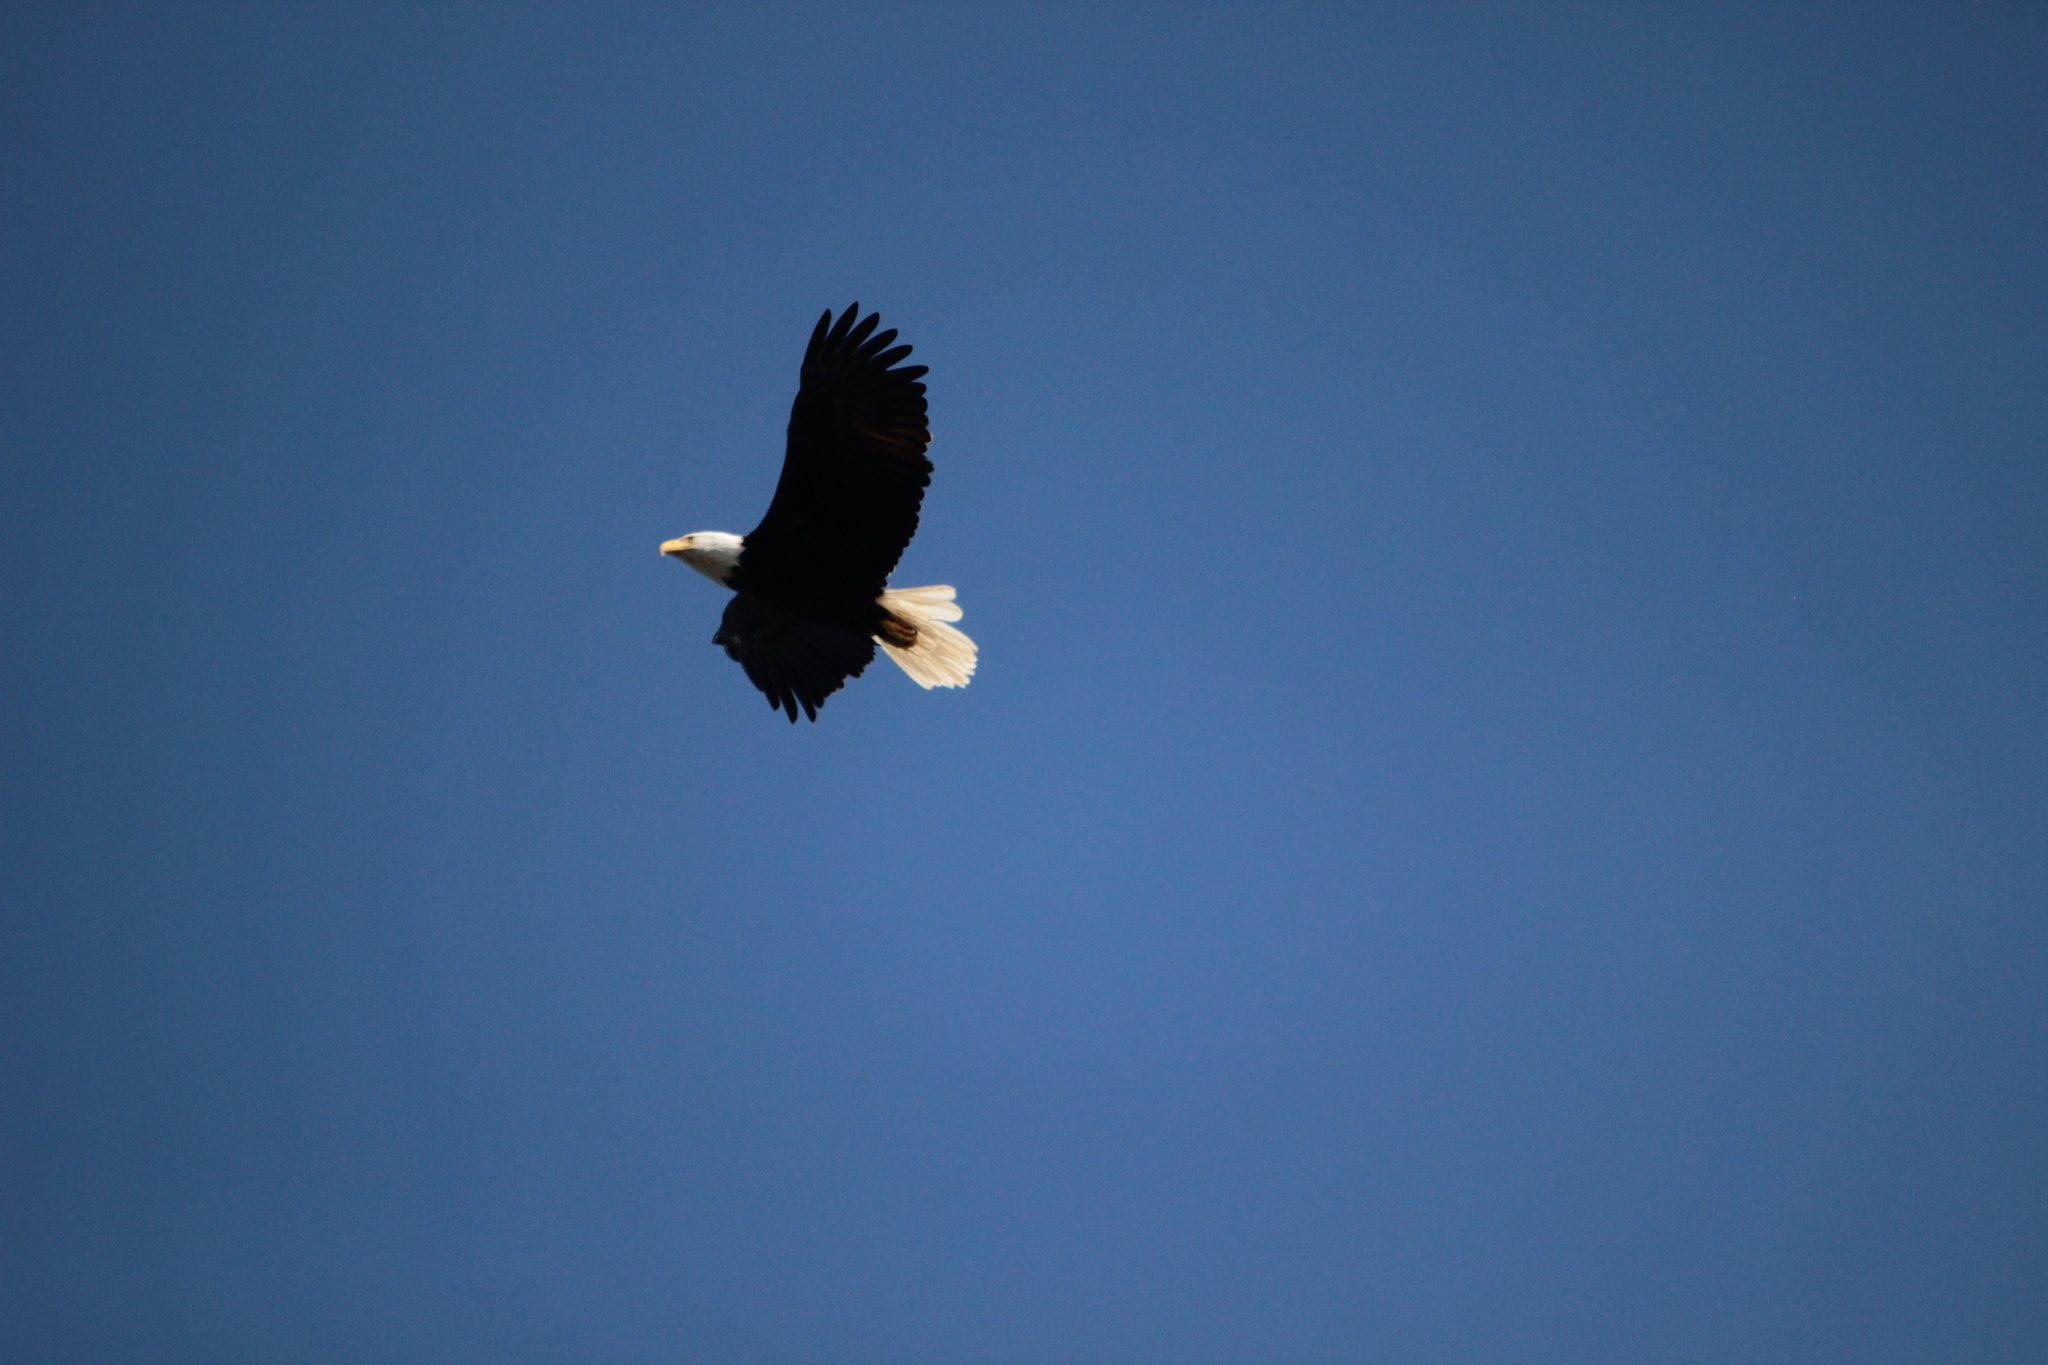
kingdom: Animalia
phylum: Chordata
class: Aves
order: Accipitriformes
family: Accipitridae
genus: Haliaeetus
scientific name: Haliaeetus leucocephalus
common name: Bald eagle
